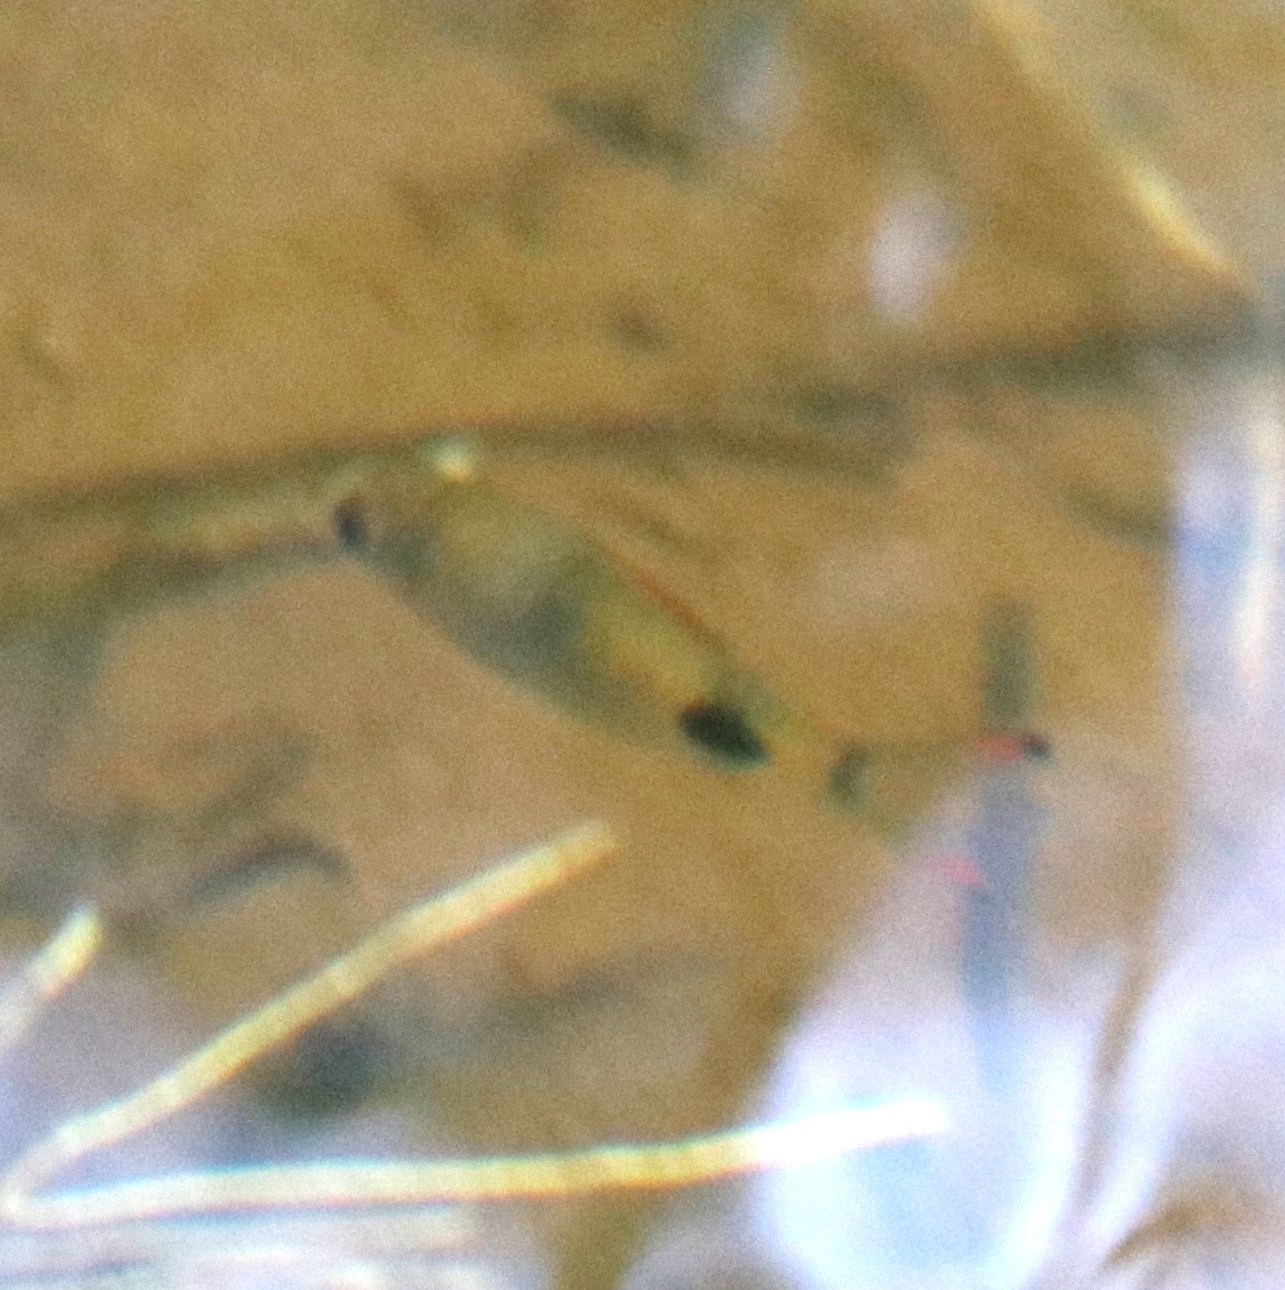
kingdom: Animalia
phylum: Chordata
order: Cypriniformes
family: Cyprinidae
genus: Dawkinsia
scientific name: Dawkinsia assimilis
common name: Mascara barb
